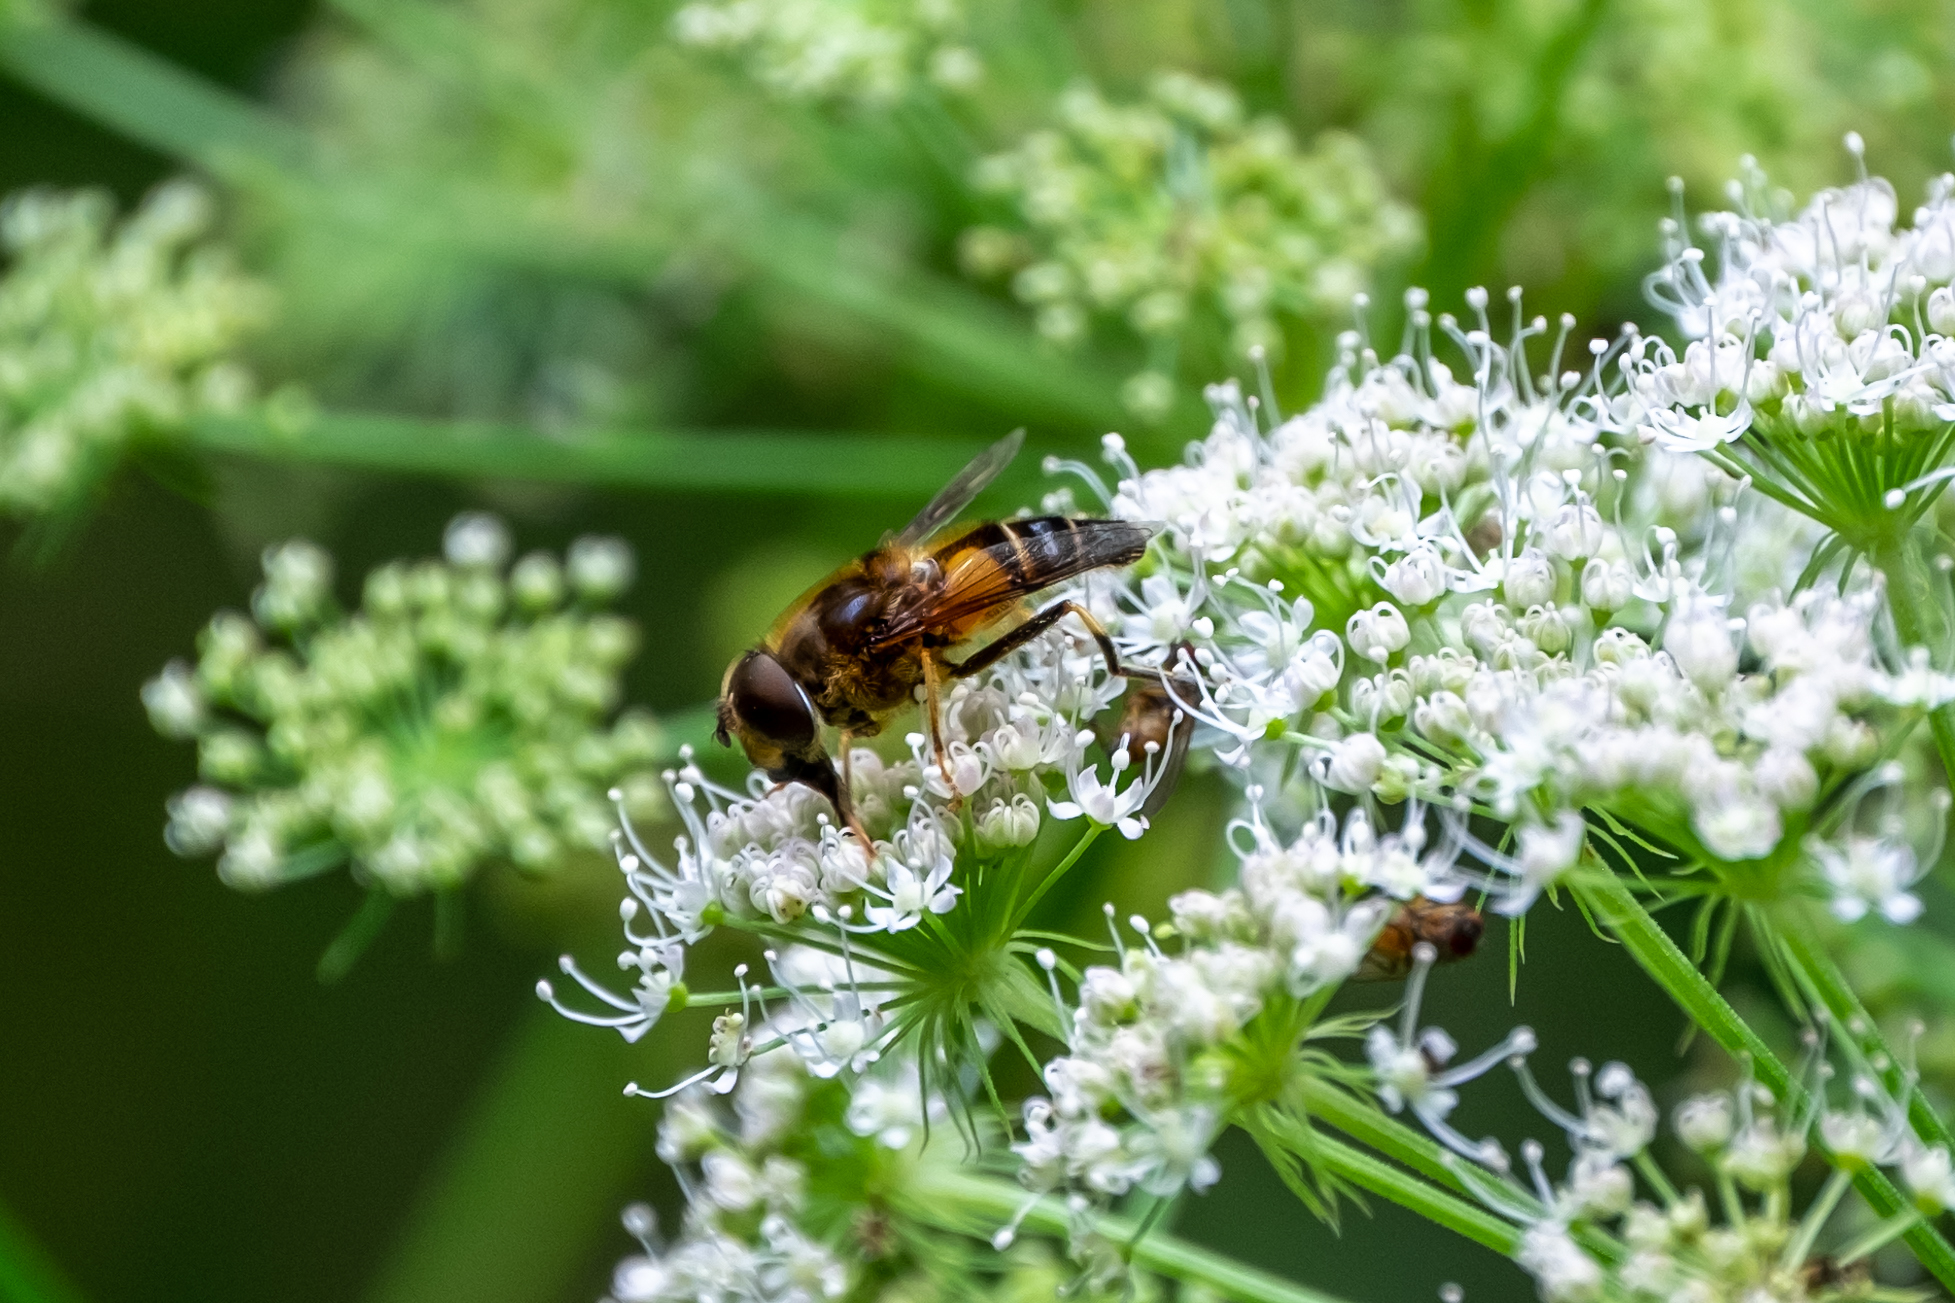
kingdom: Animalia
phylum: Arthropoda
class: Insecta
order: Diptera
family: Syrphidae
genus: Eristalis
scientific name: Eristalis pertinax
